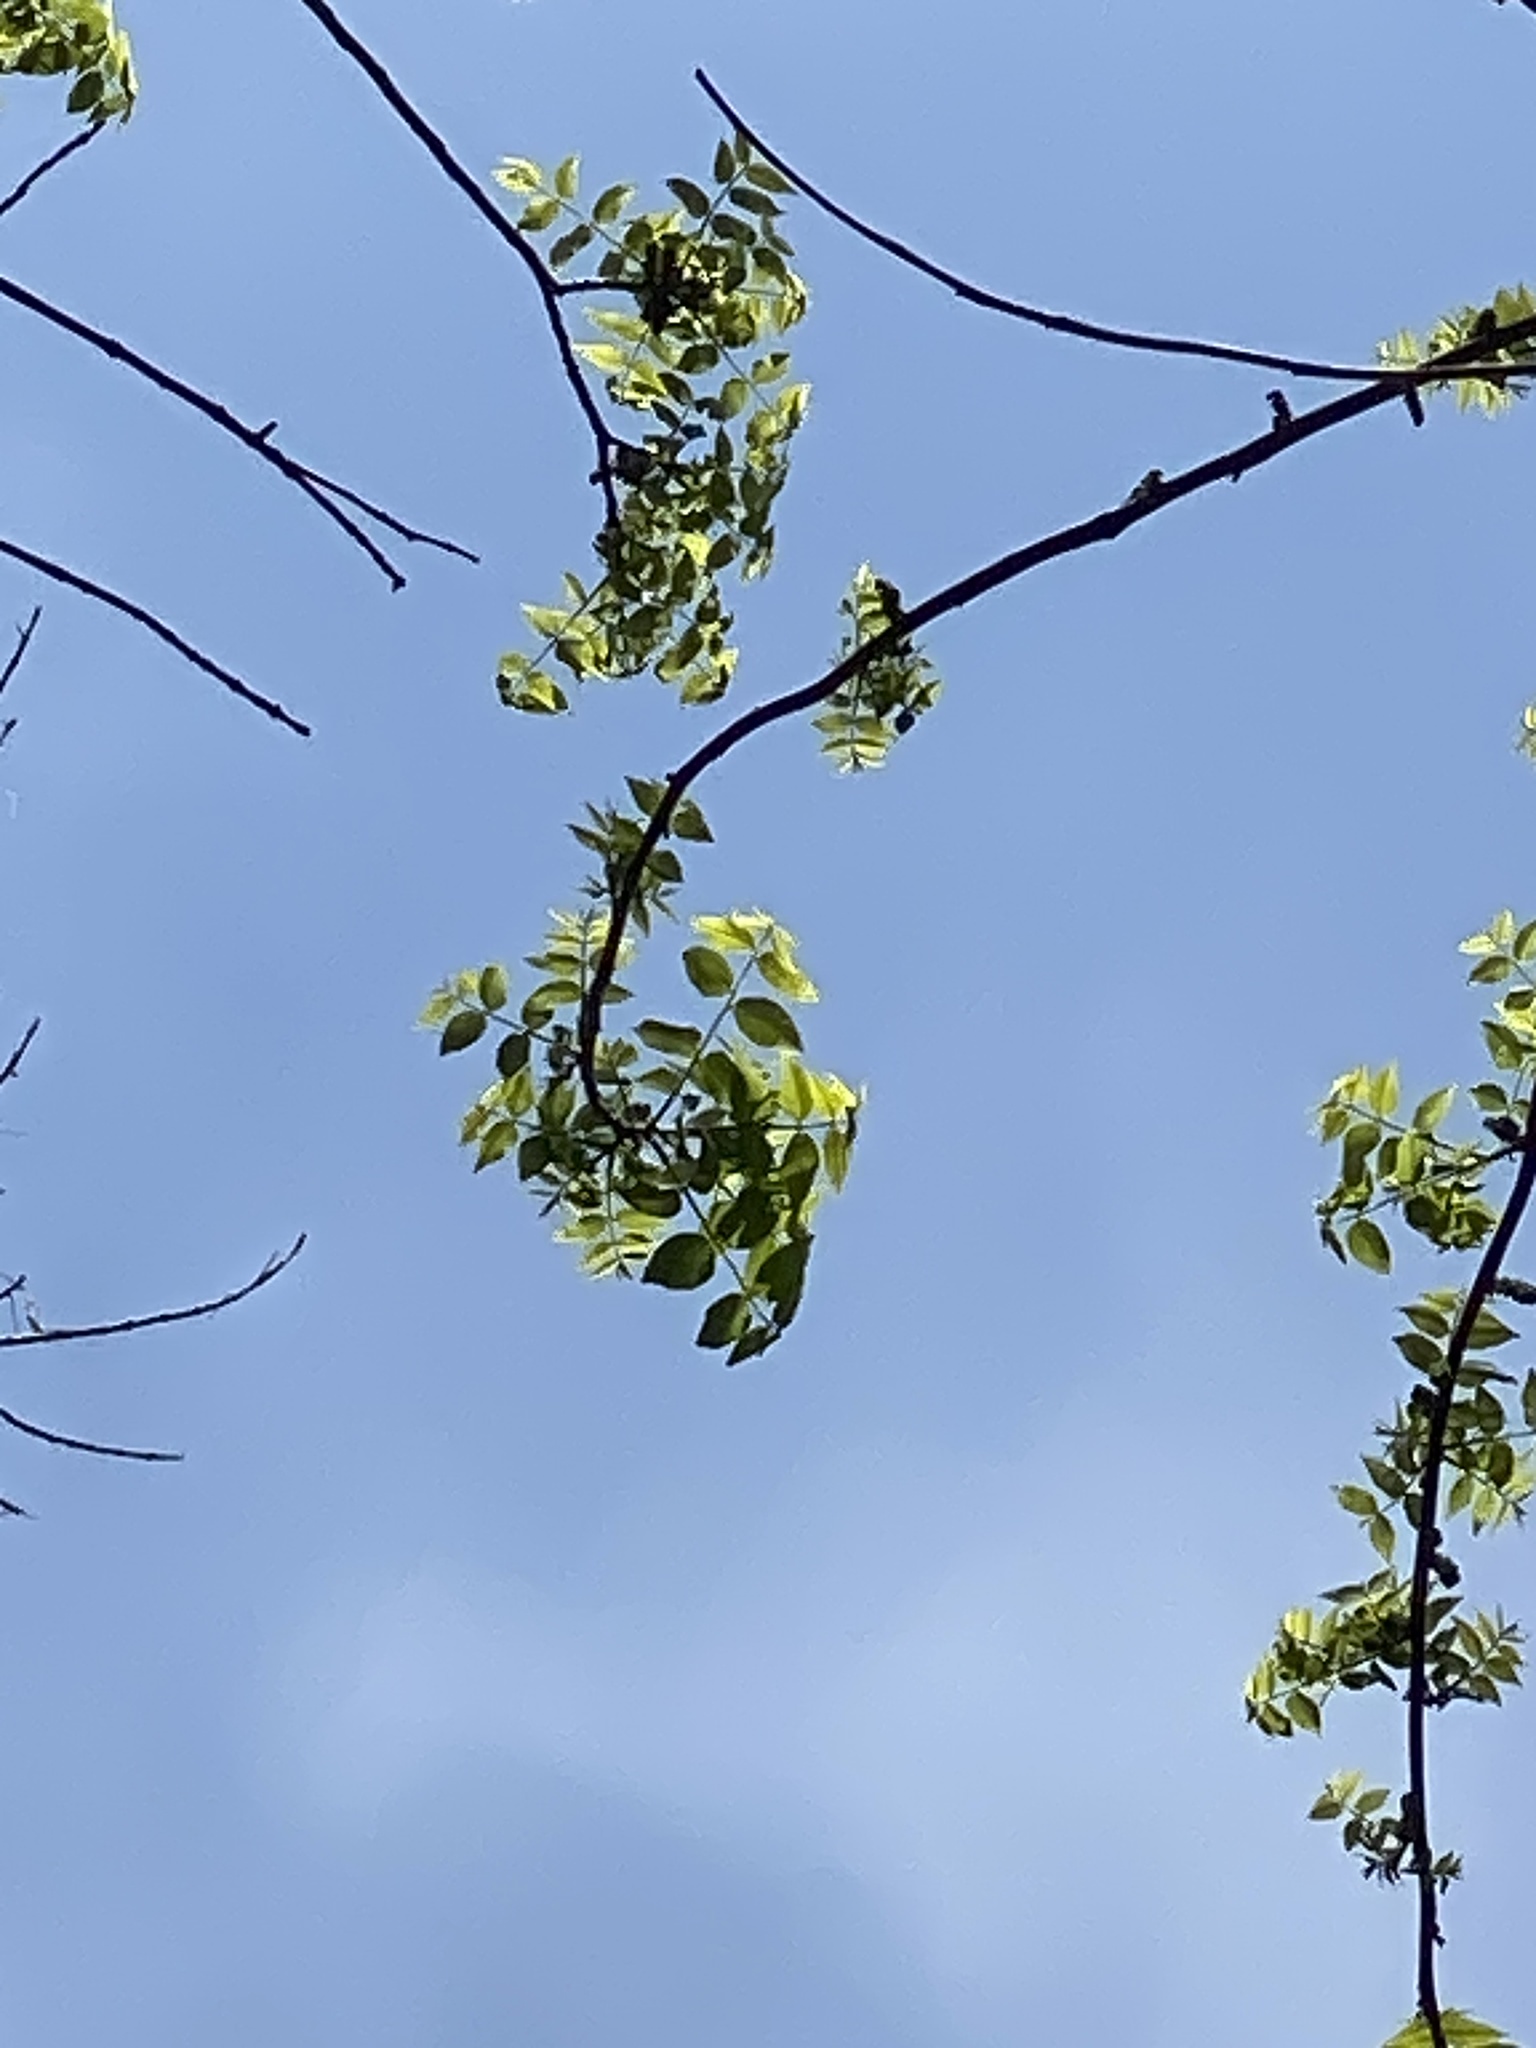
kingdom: Plantae
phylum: Tracheophyta
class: Magnoliopsida
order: Fagales
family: Juglandaceae
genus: Juglans
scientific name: Juglans nigra
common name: Black walnut
